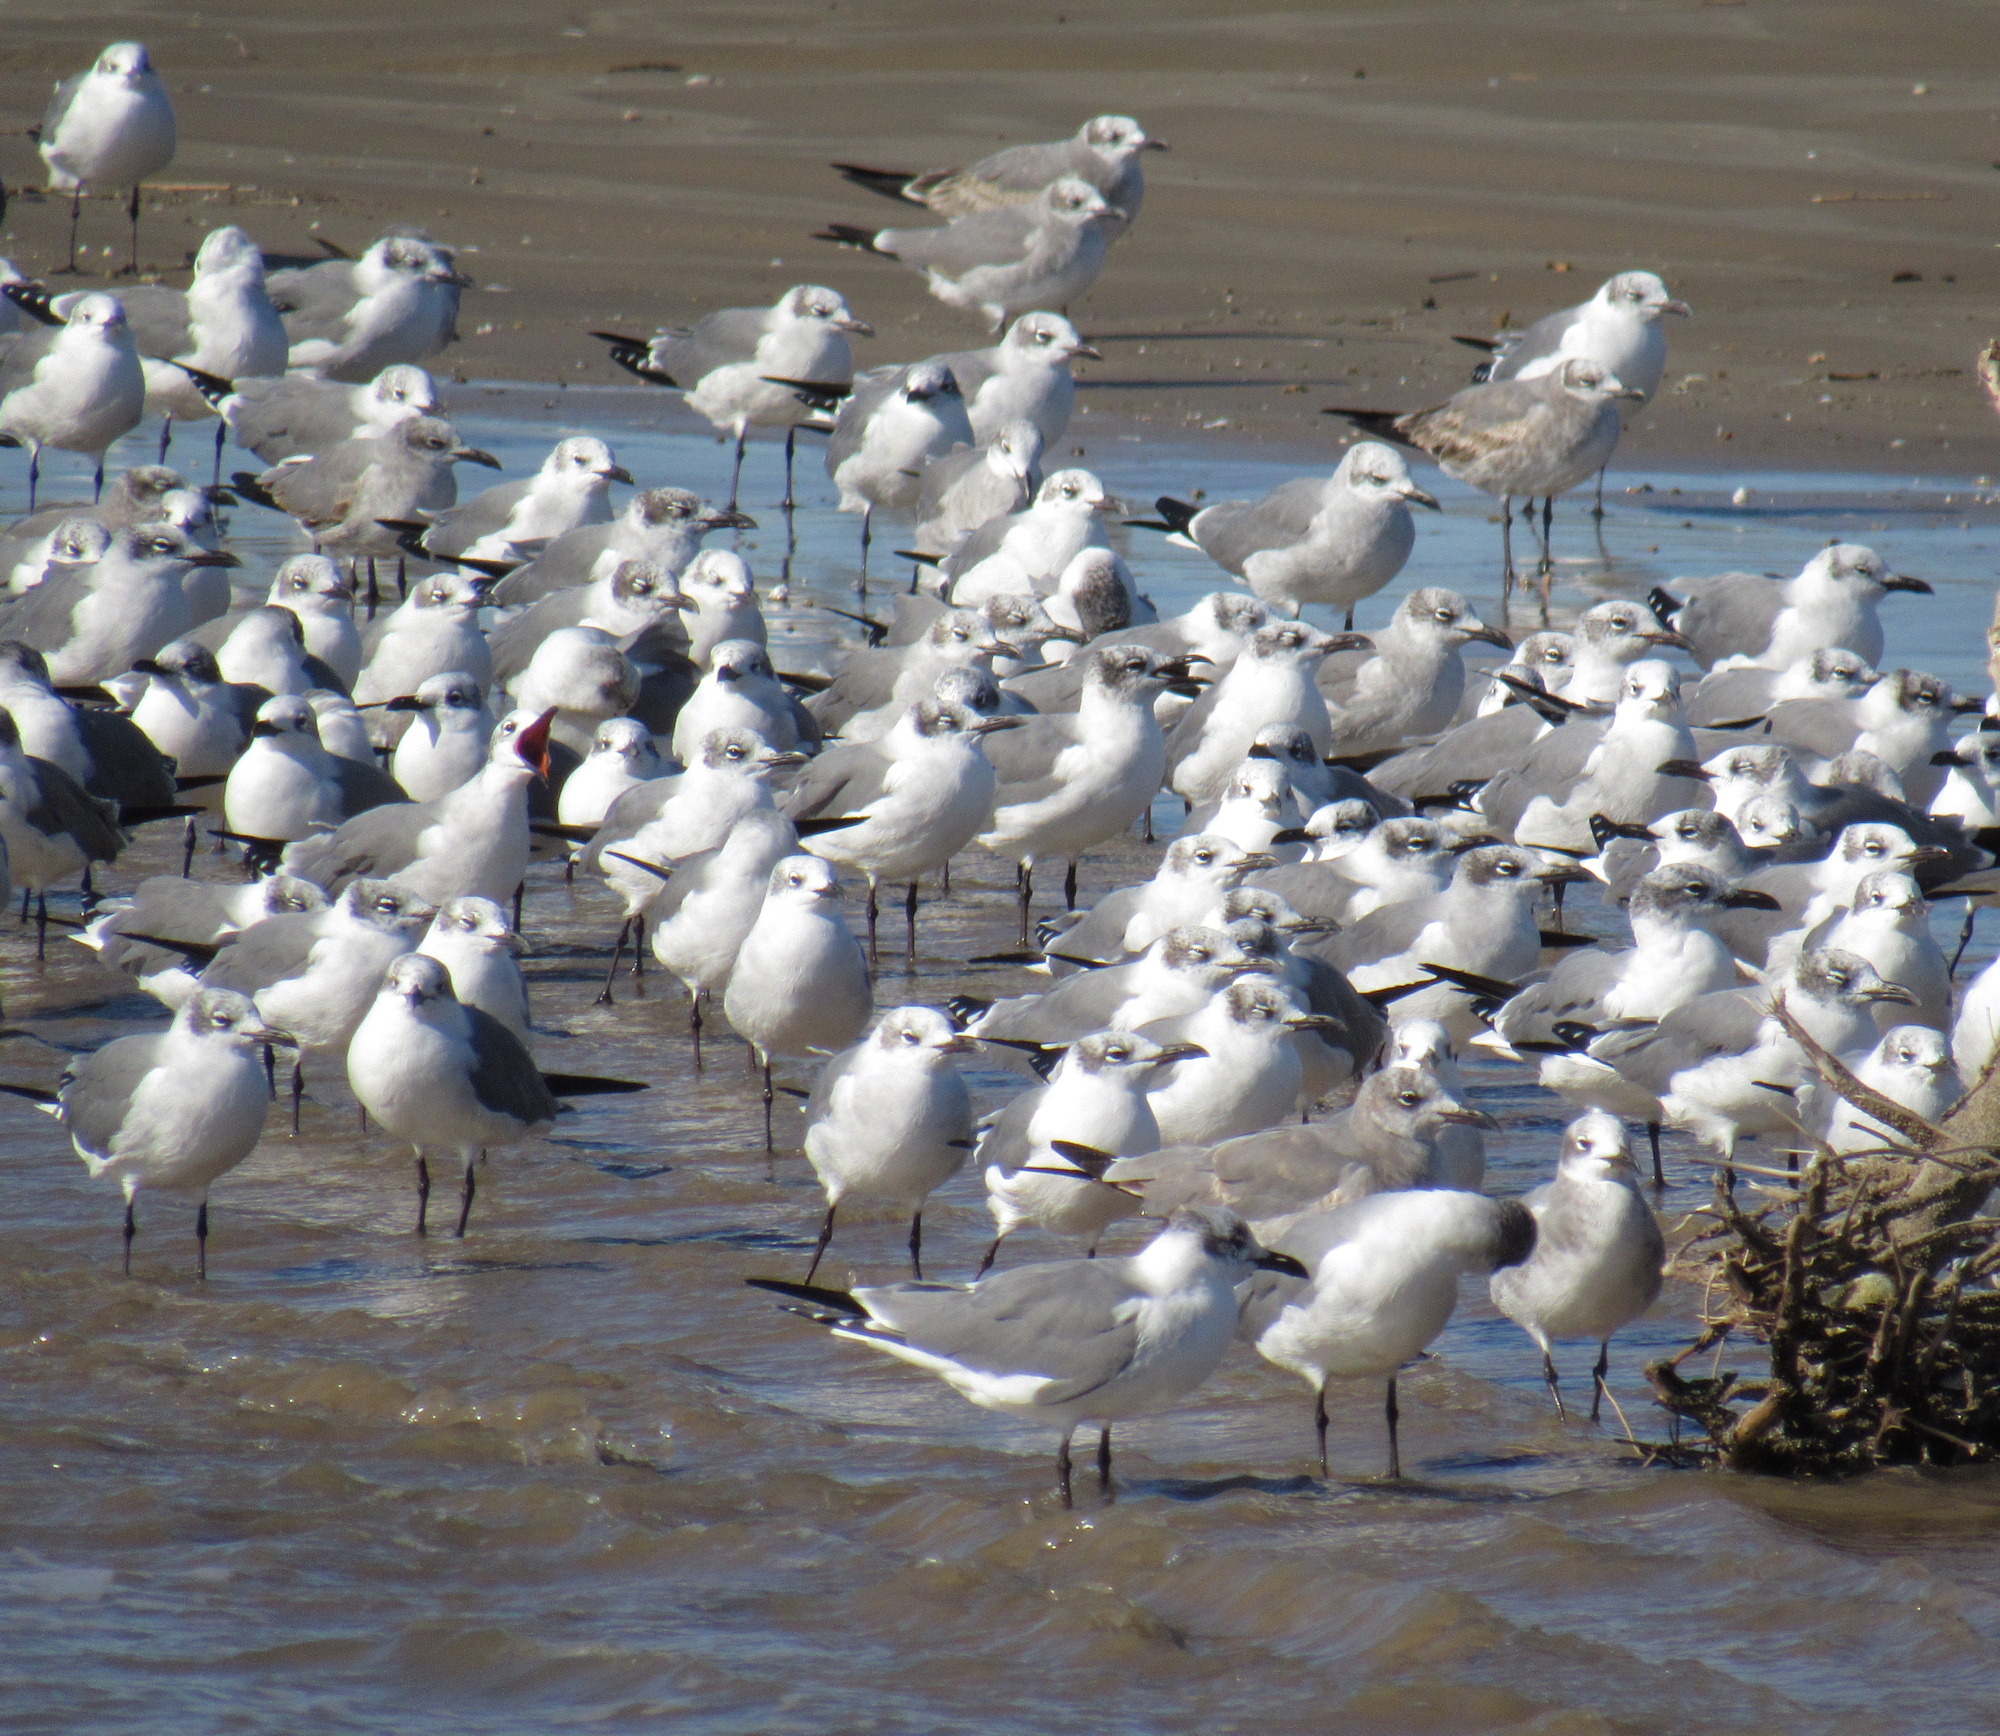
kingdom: Animalia
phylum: Chordata
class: Aves
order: Charadriiformes
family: Laridae
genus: Leucophaeus
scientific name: Leucophaeus atricilla
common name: Laughing gull
